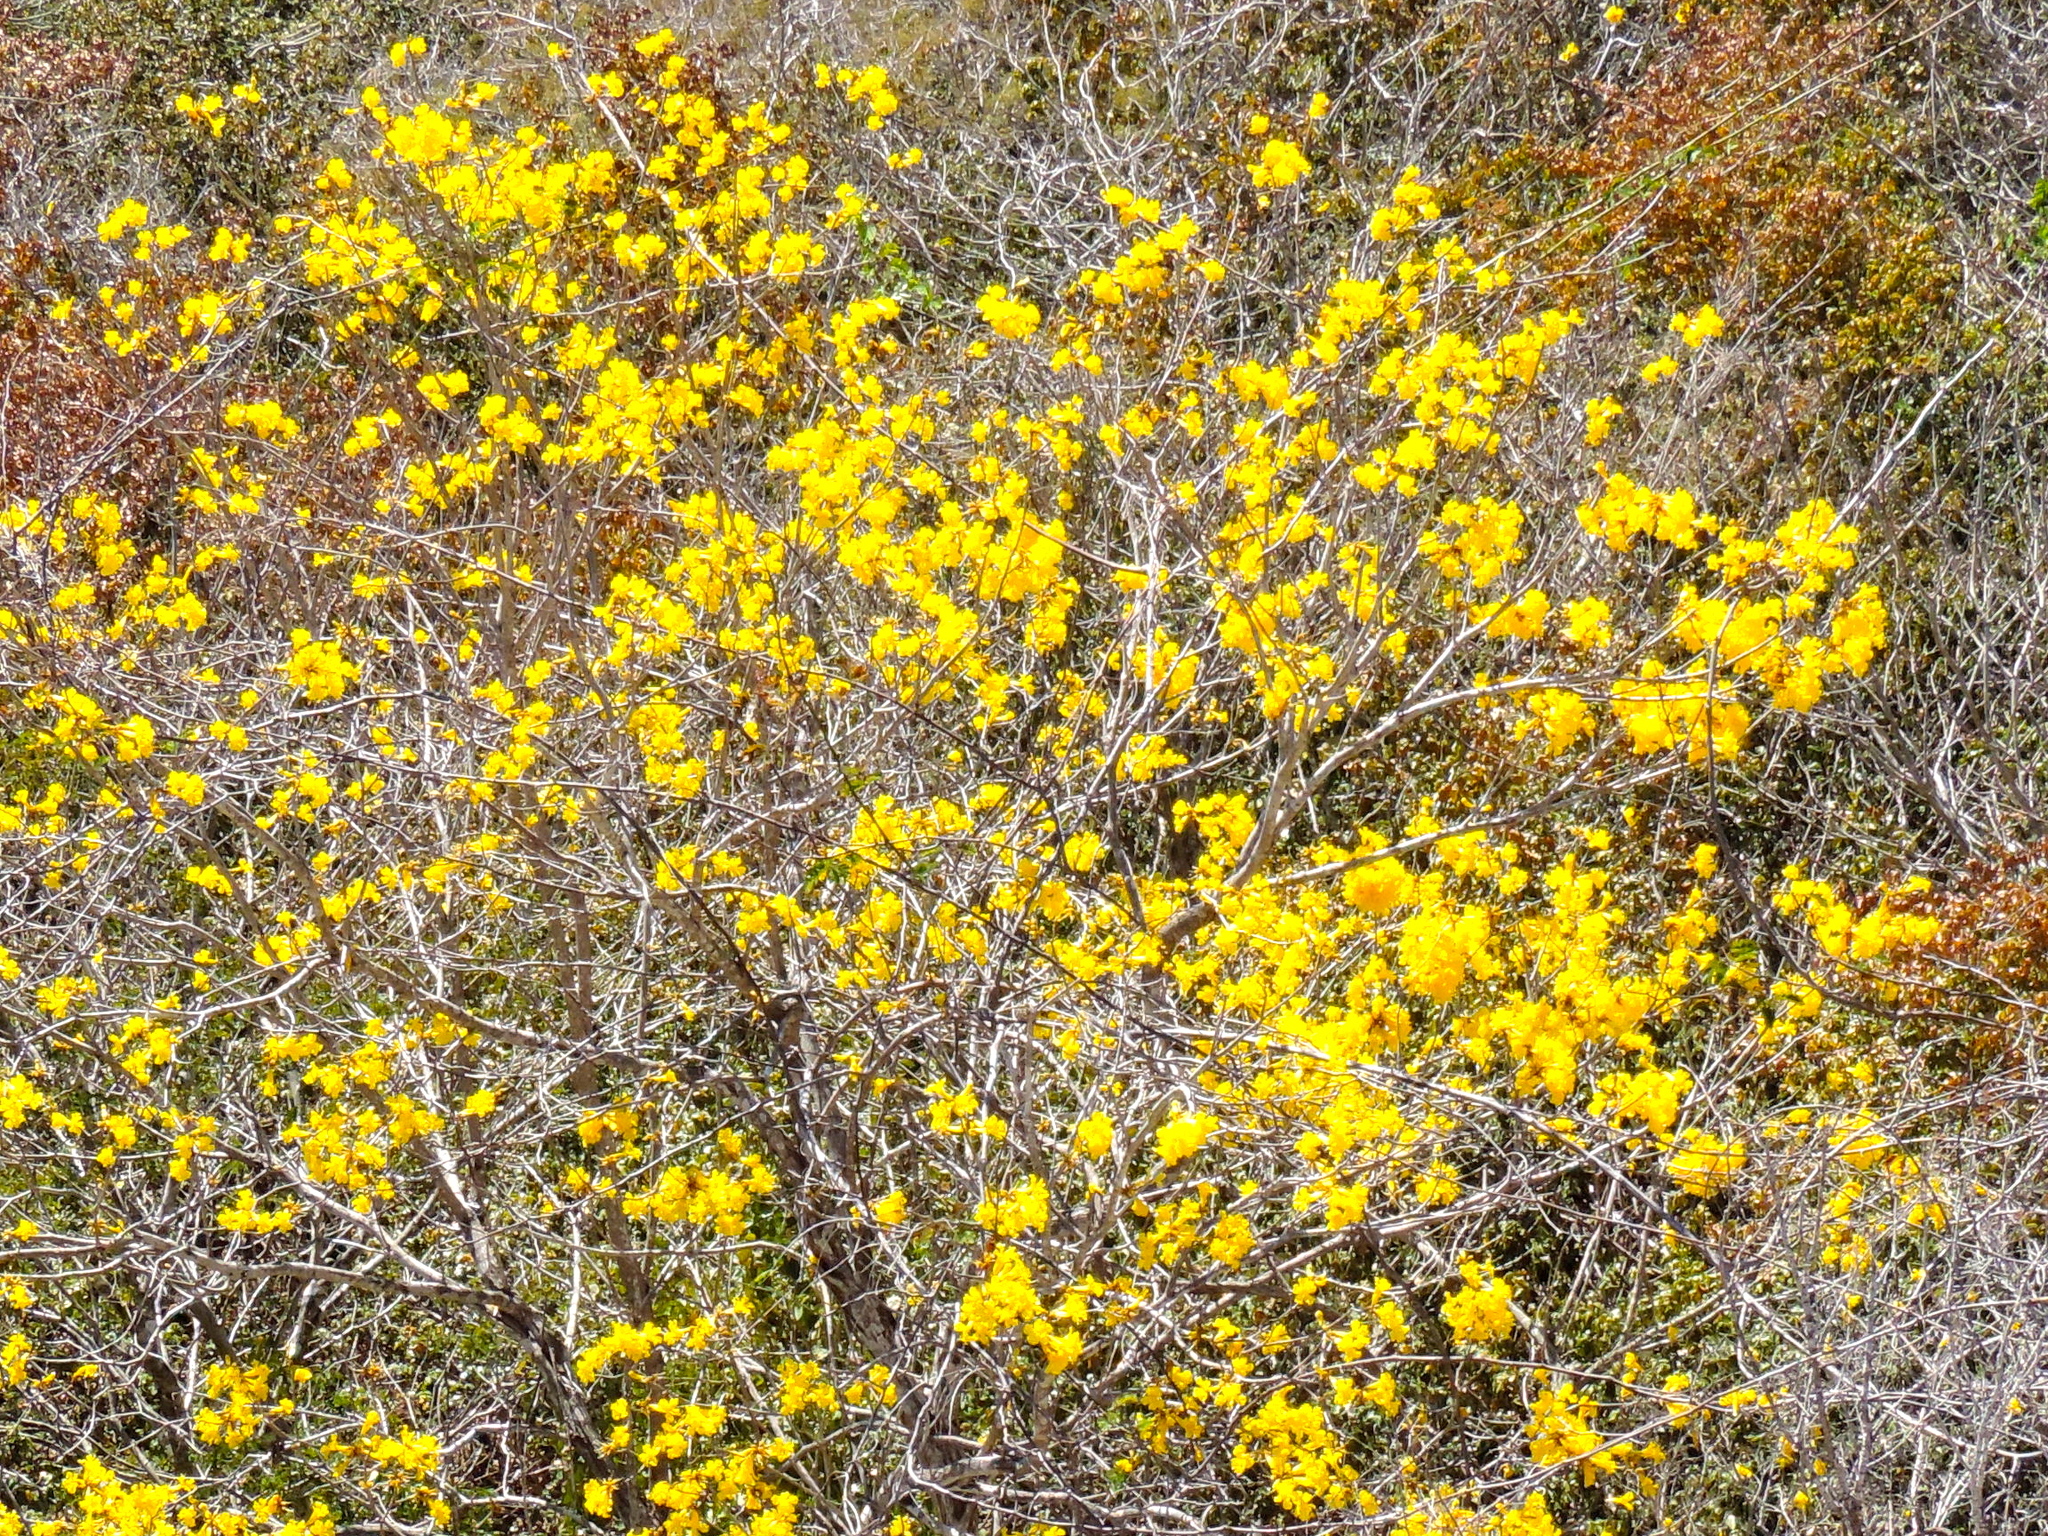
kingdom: Plantae
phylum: Tracheophyta
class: Magnoliopsida
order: Lamiales
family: Bignoniaceae
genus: Handroanthus
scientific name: Handroanthus chrysanthus
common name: Trumpet trees
